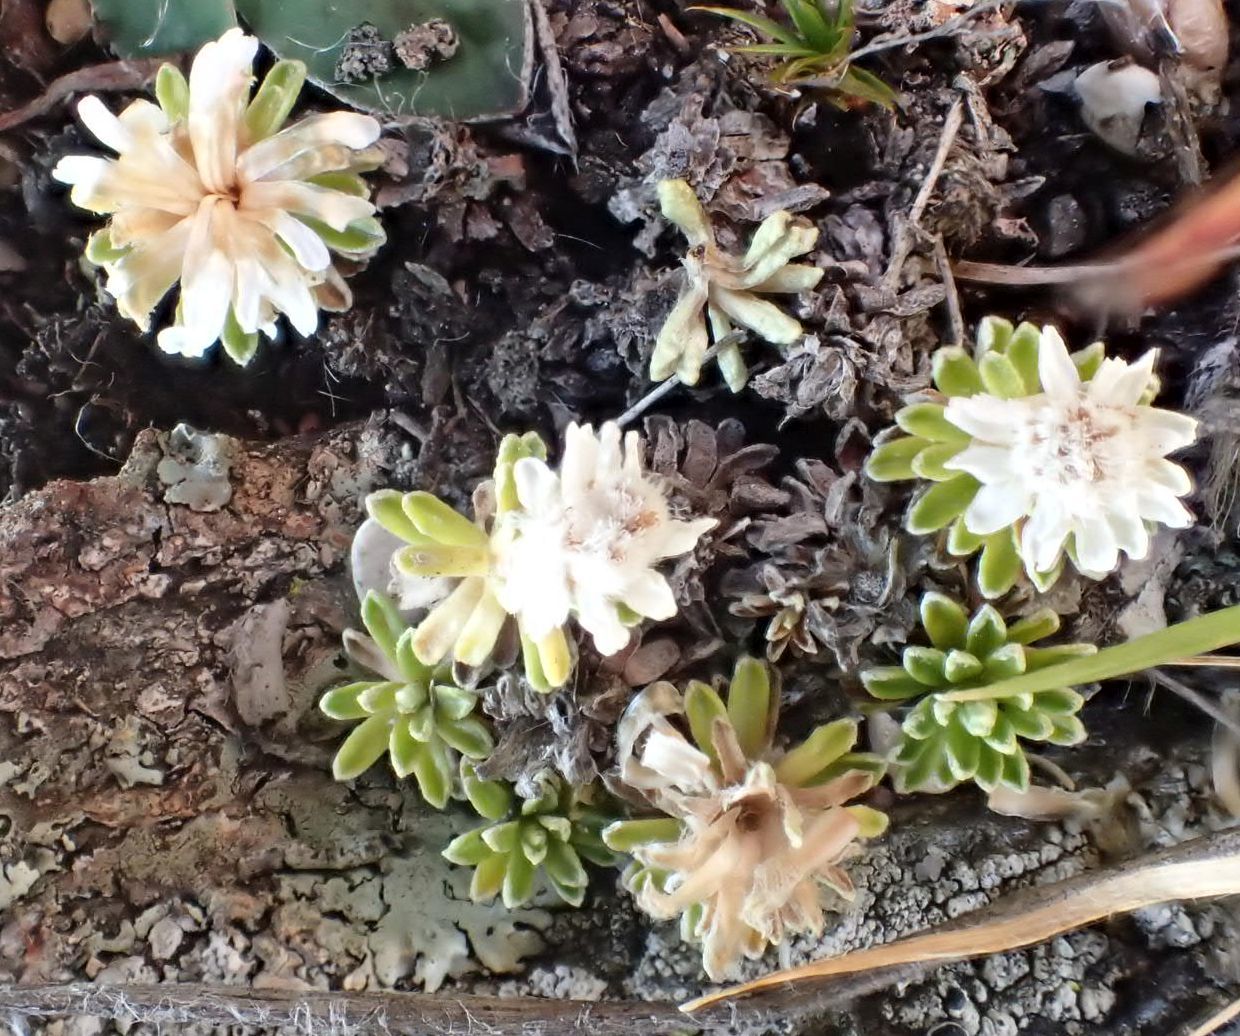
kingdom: Plantae
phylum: Tracheophyta
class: Magnoliopsida
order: Asterales
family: Asteraceae
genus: Raoulia
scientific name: Raoulia subsericea
